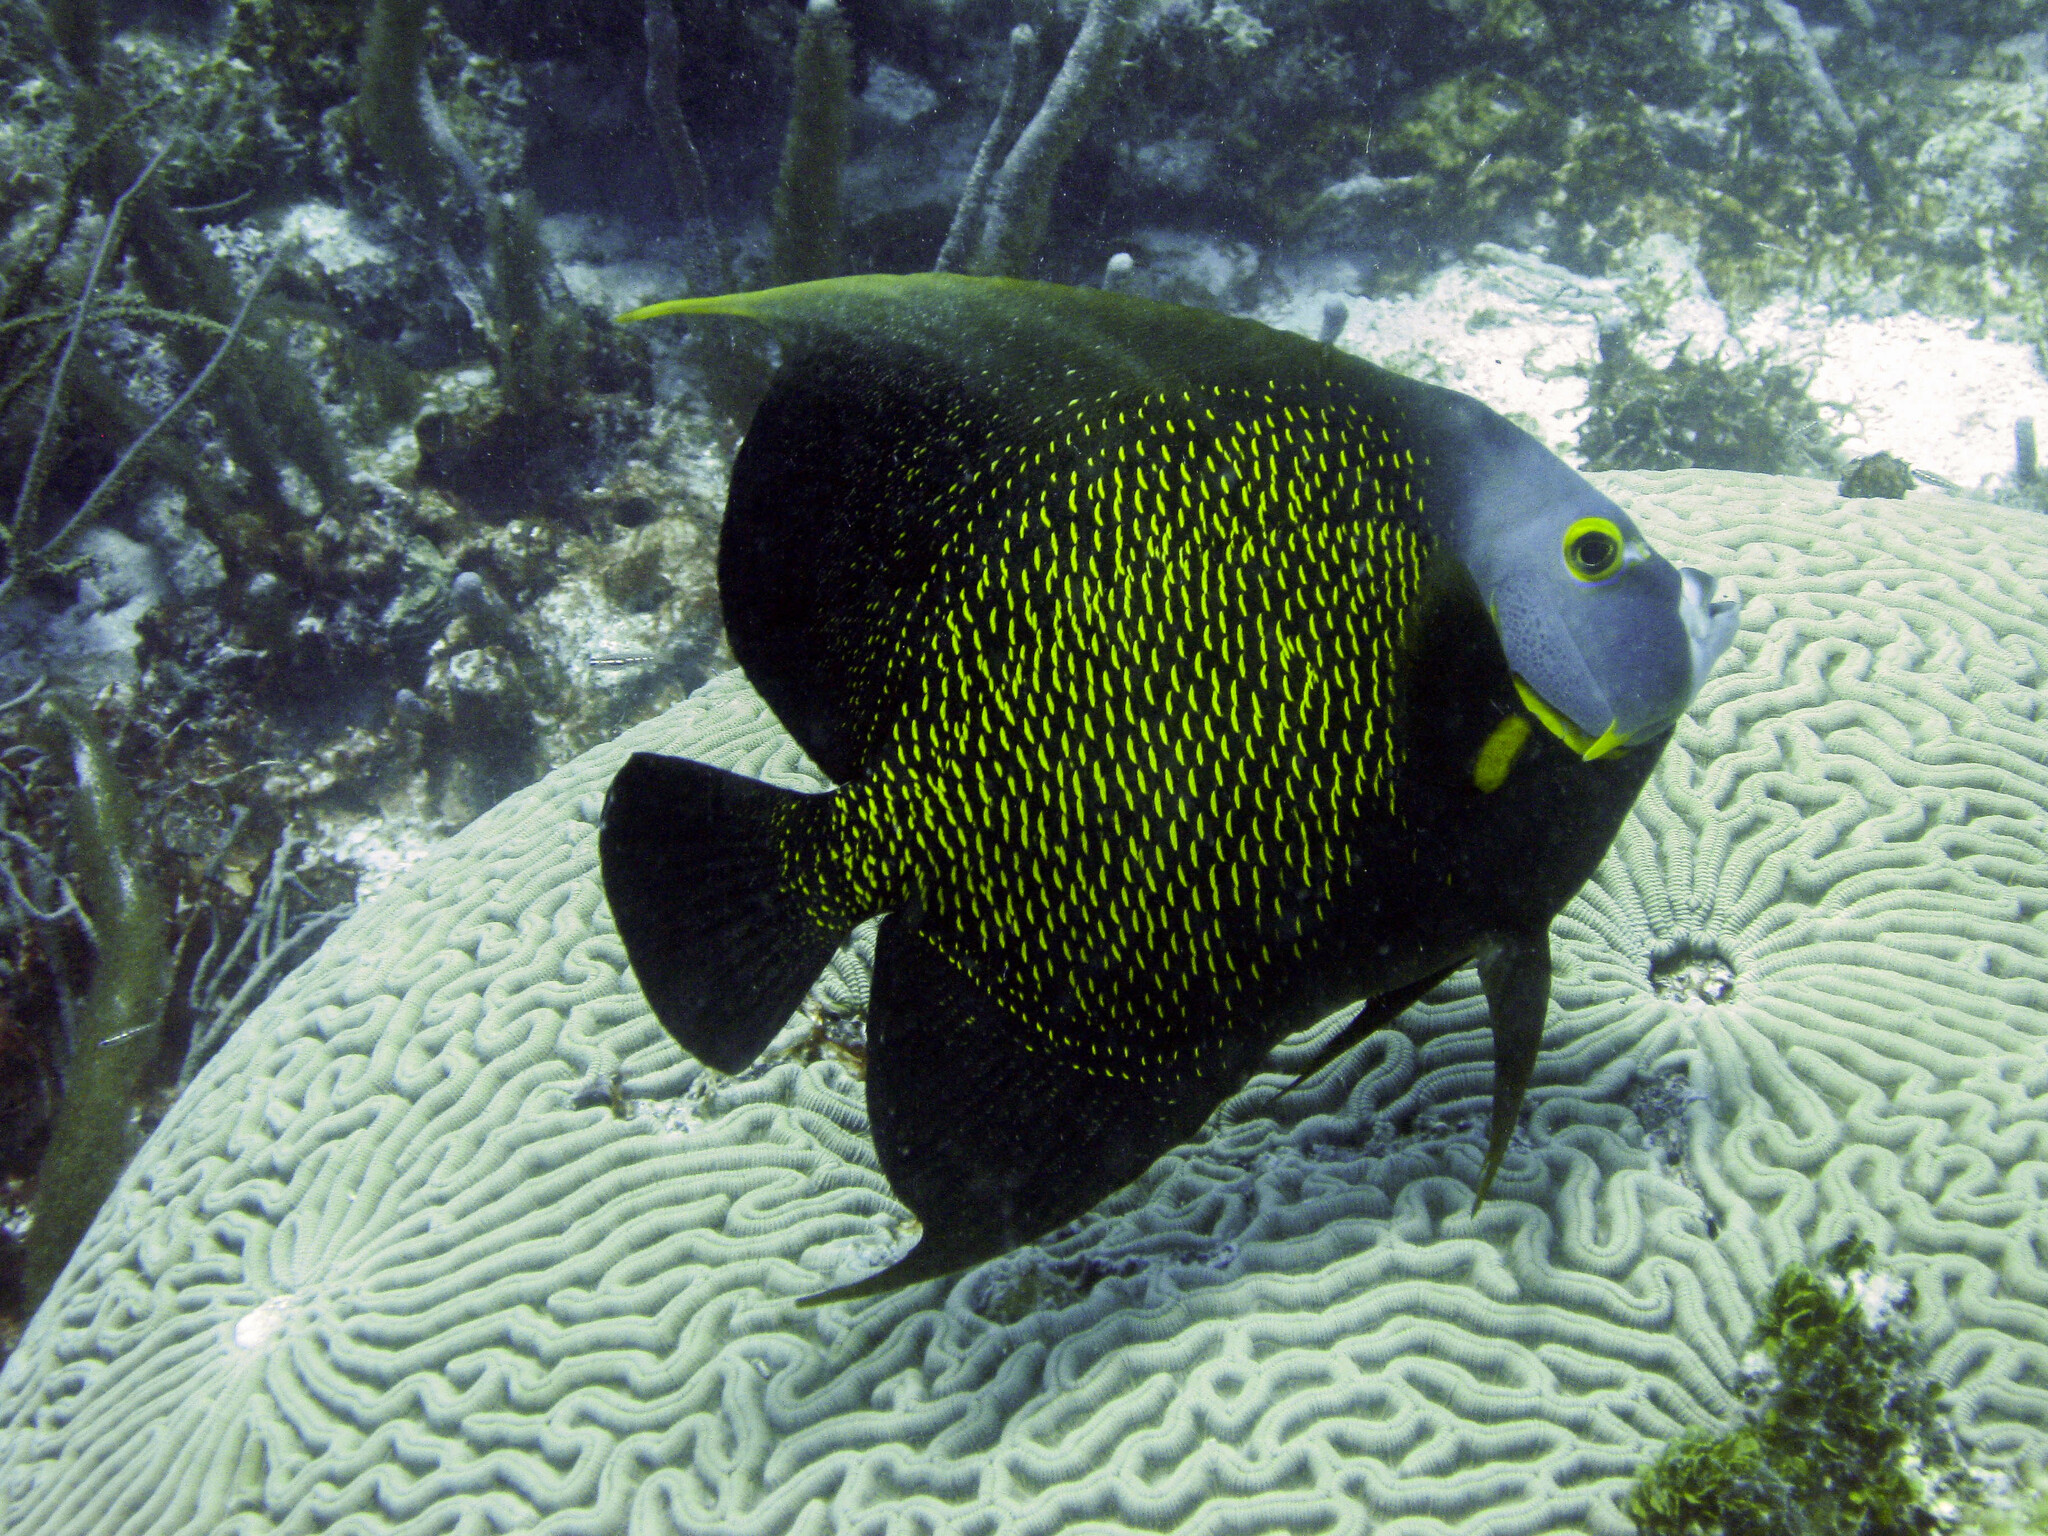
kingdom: Animalia
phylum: Chordata
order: Perciformes
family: Pomacanthidae
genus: Pomacanthus
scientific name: Pomacanthus paru
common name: French angelfish
